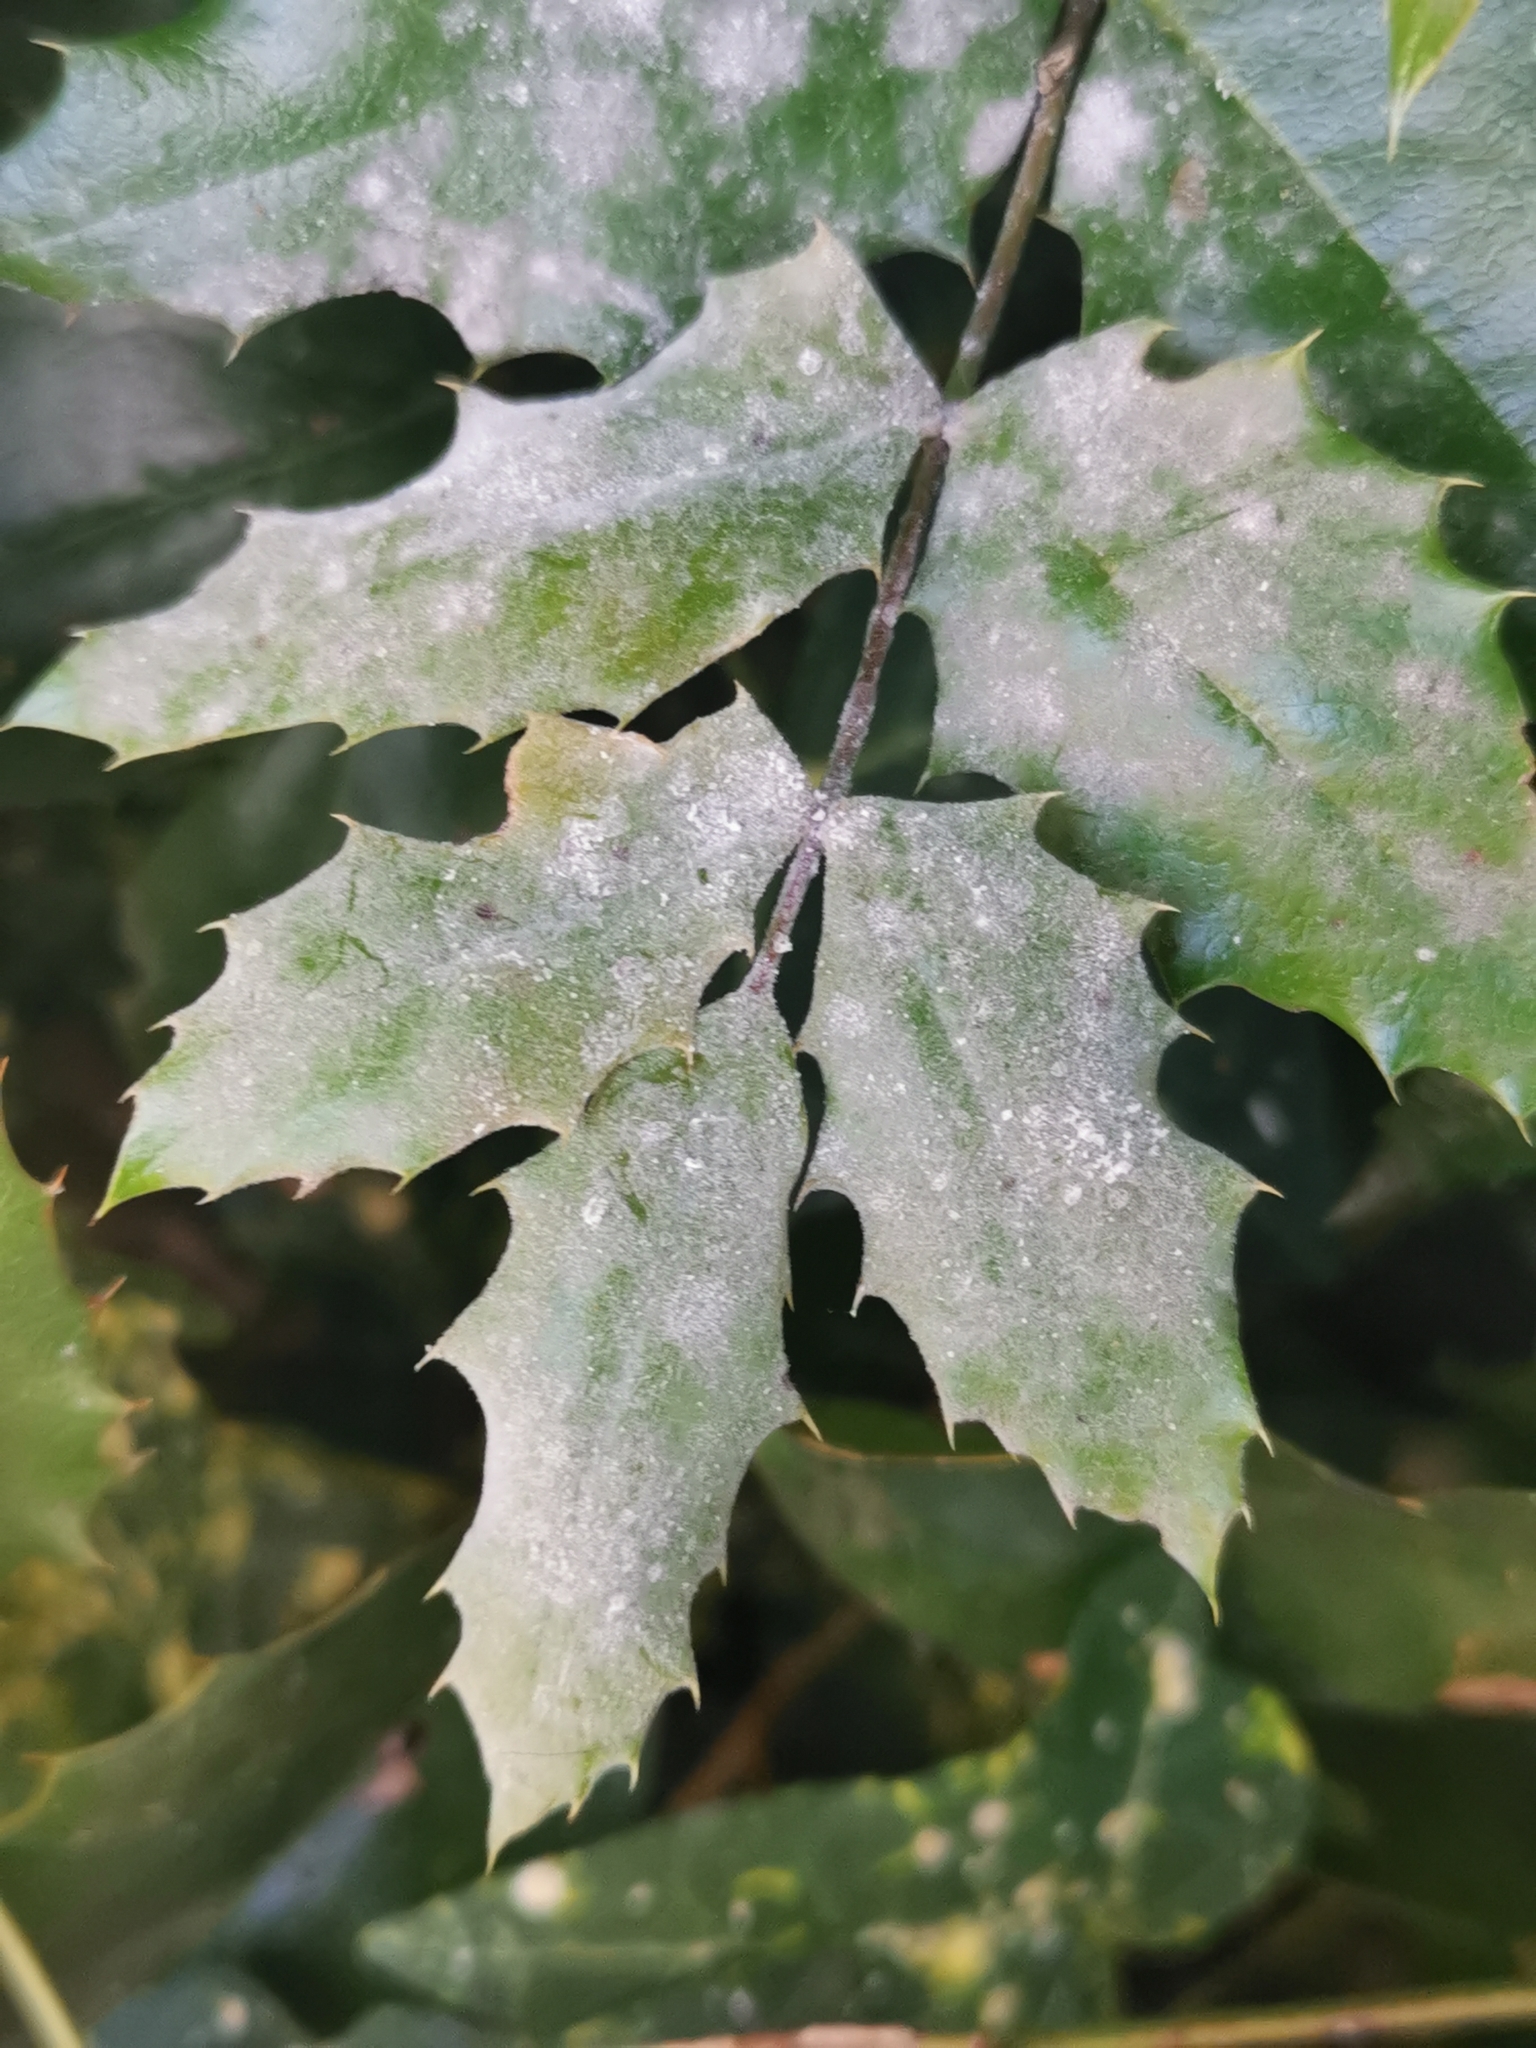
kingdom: Fungi
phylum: Ascomycota
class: Leotiomycetes
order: Helotiales
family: Erysiphaceae
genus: Erysiphe
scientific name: Erysiphe berberidis
